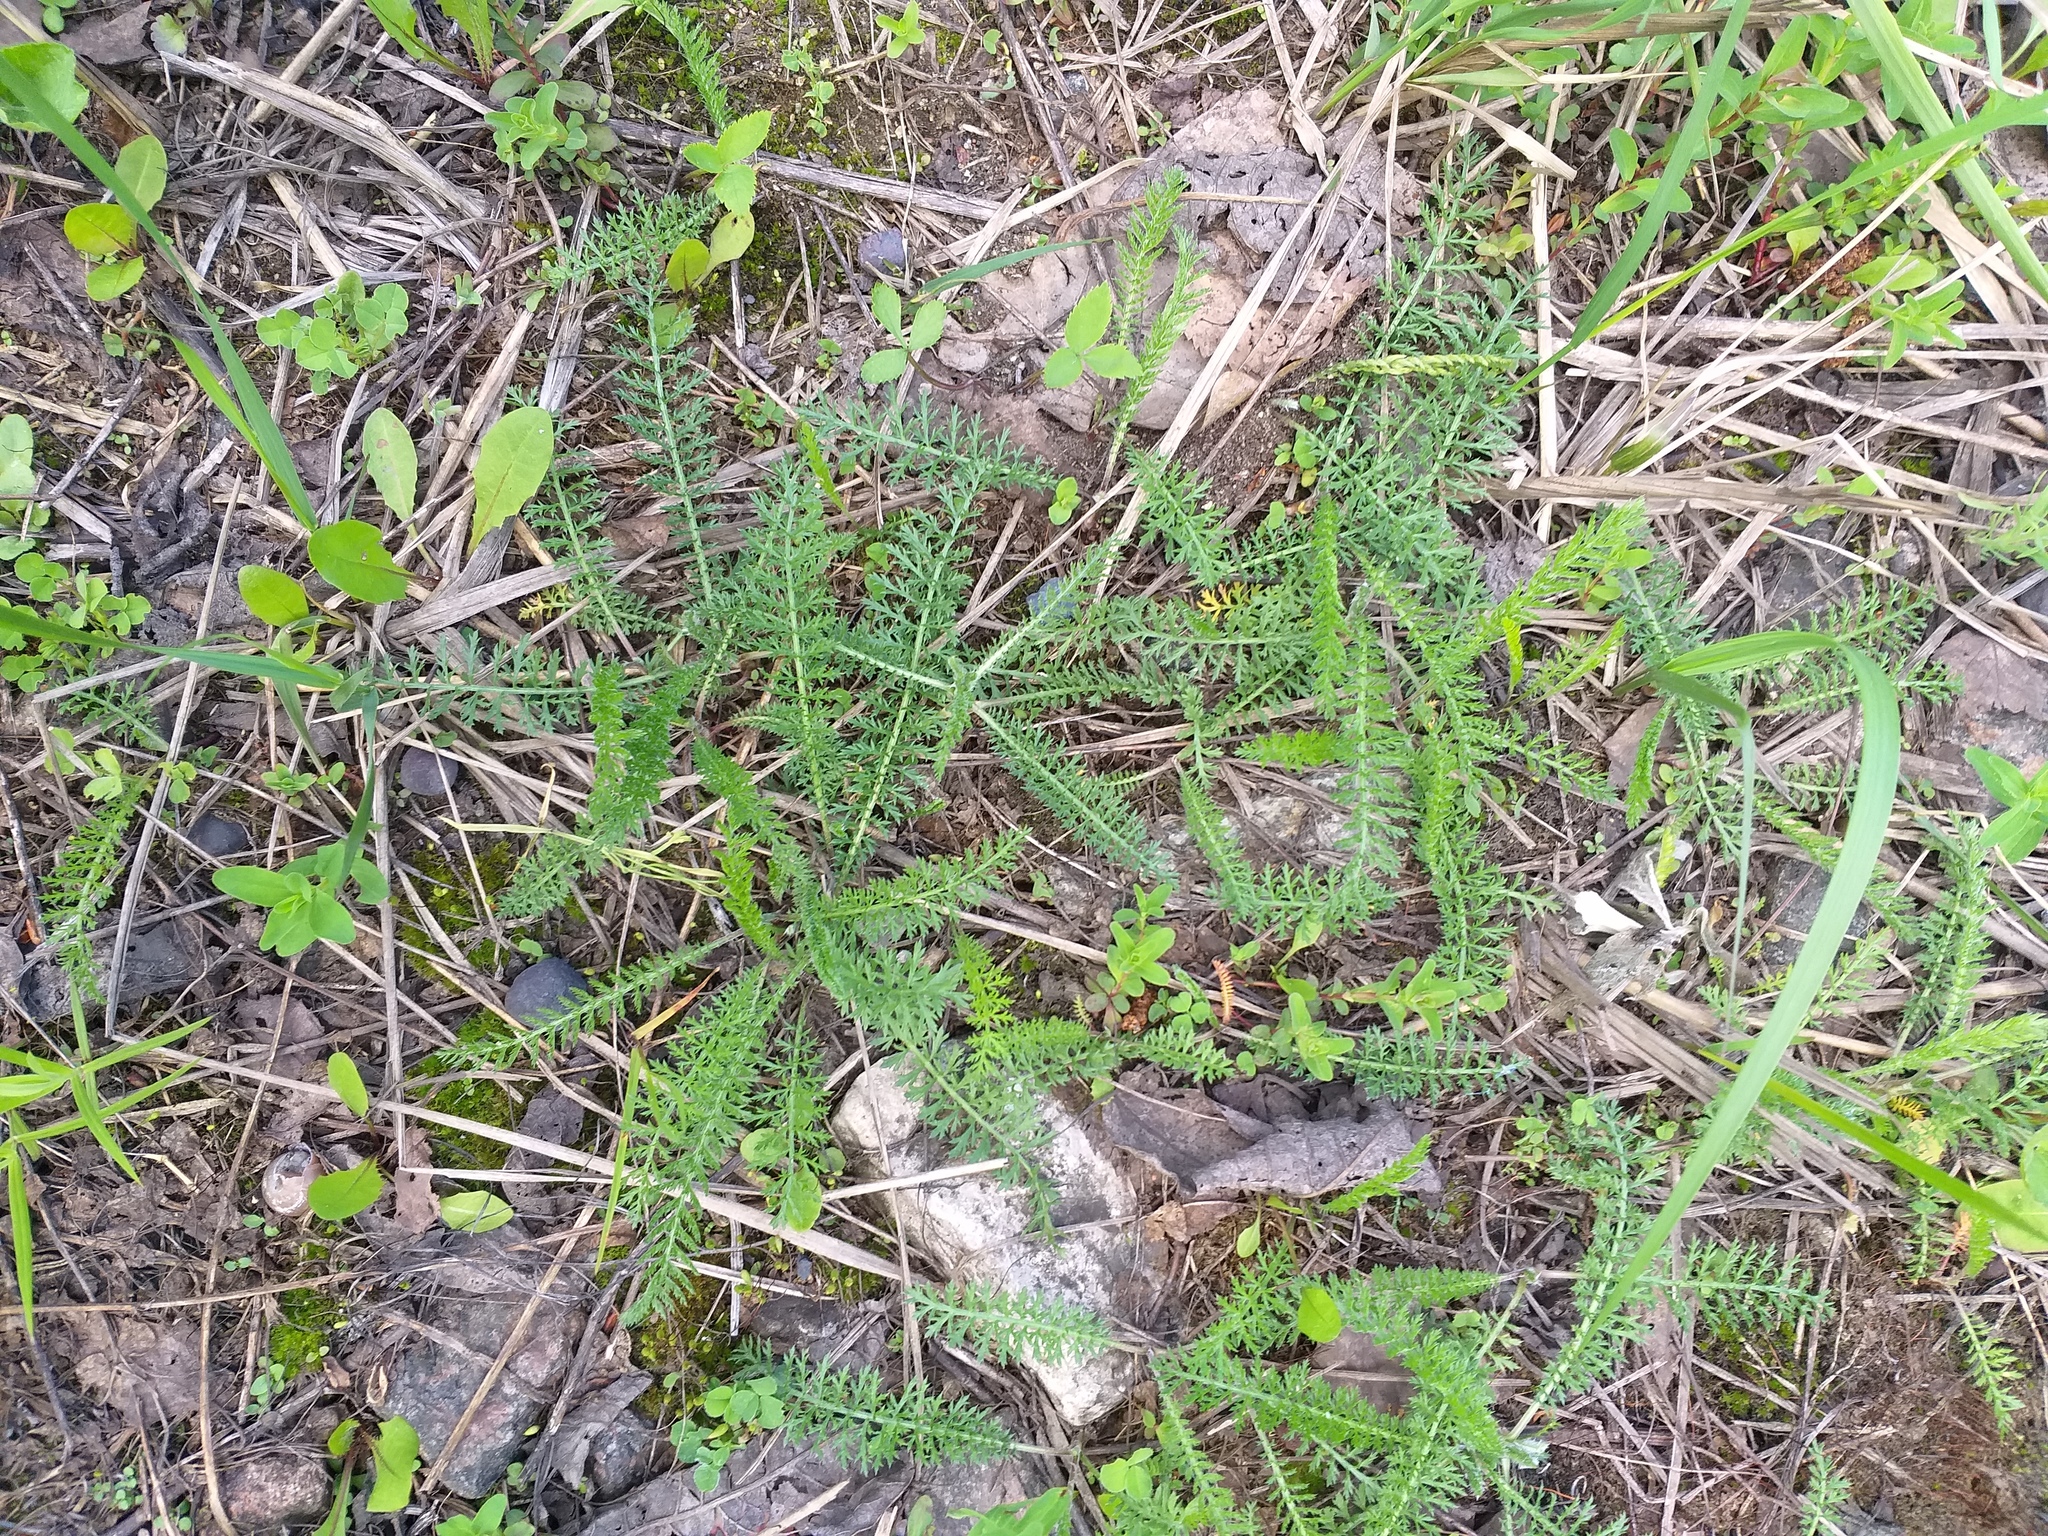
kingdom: Plantae
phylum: Tracheophyta
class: Magnoliopsida
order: Asterales
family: Asteraceae
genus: Achillea
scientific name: Achillea millefolium
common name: Yarrow
